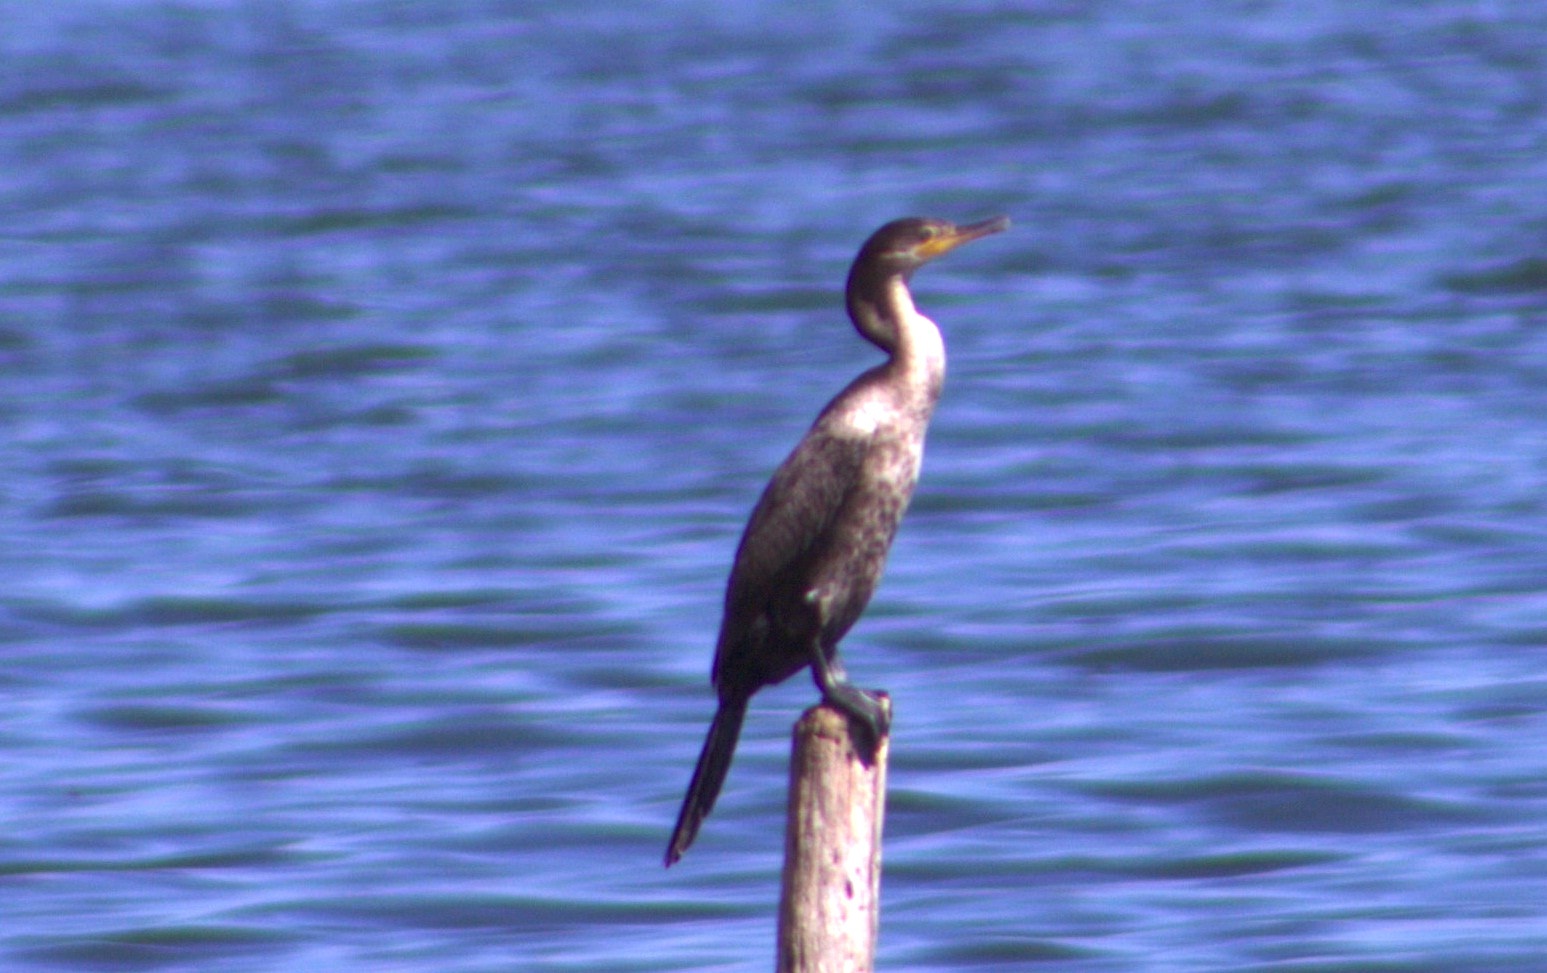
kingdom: Animalia
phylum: Chordata
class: Aves
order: Suliformes
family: Phalacrocoracidae
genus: Phalacrocorax
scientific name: Phalacrocorax brasilianus
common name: Neotropic cormorant
